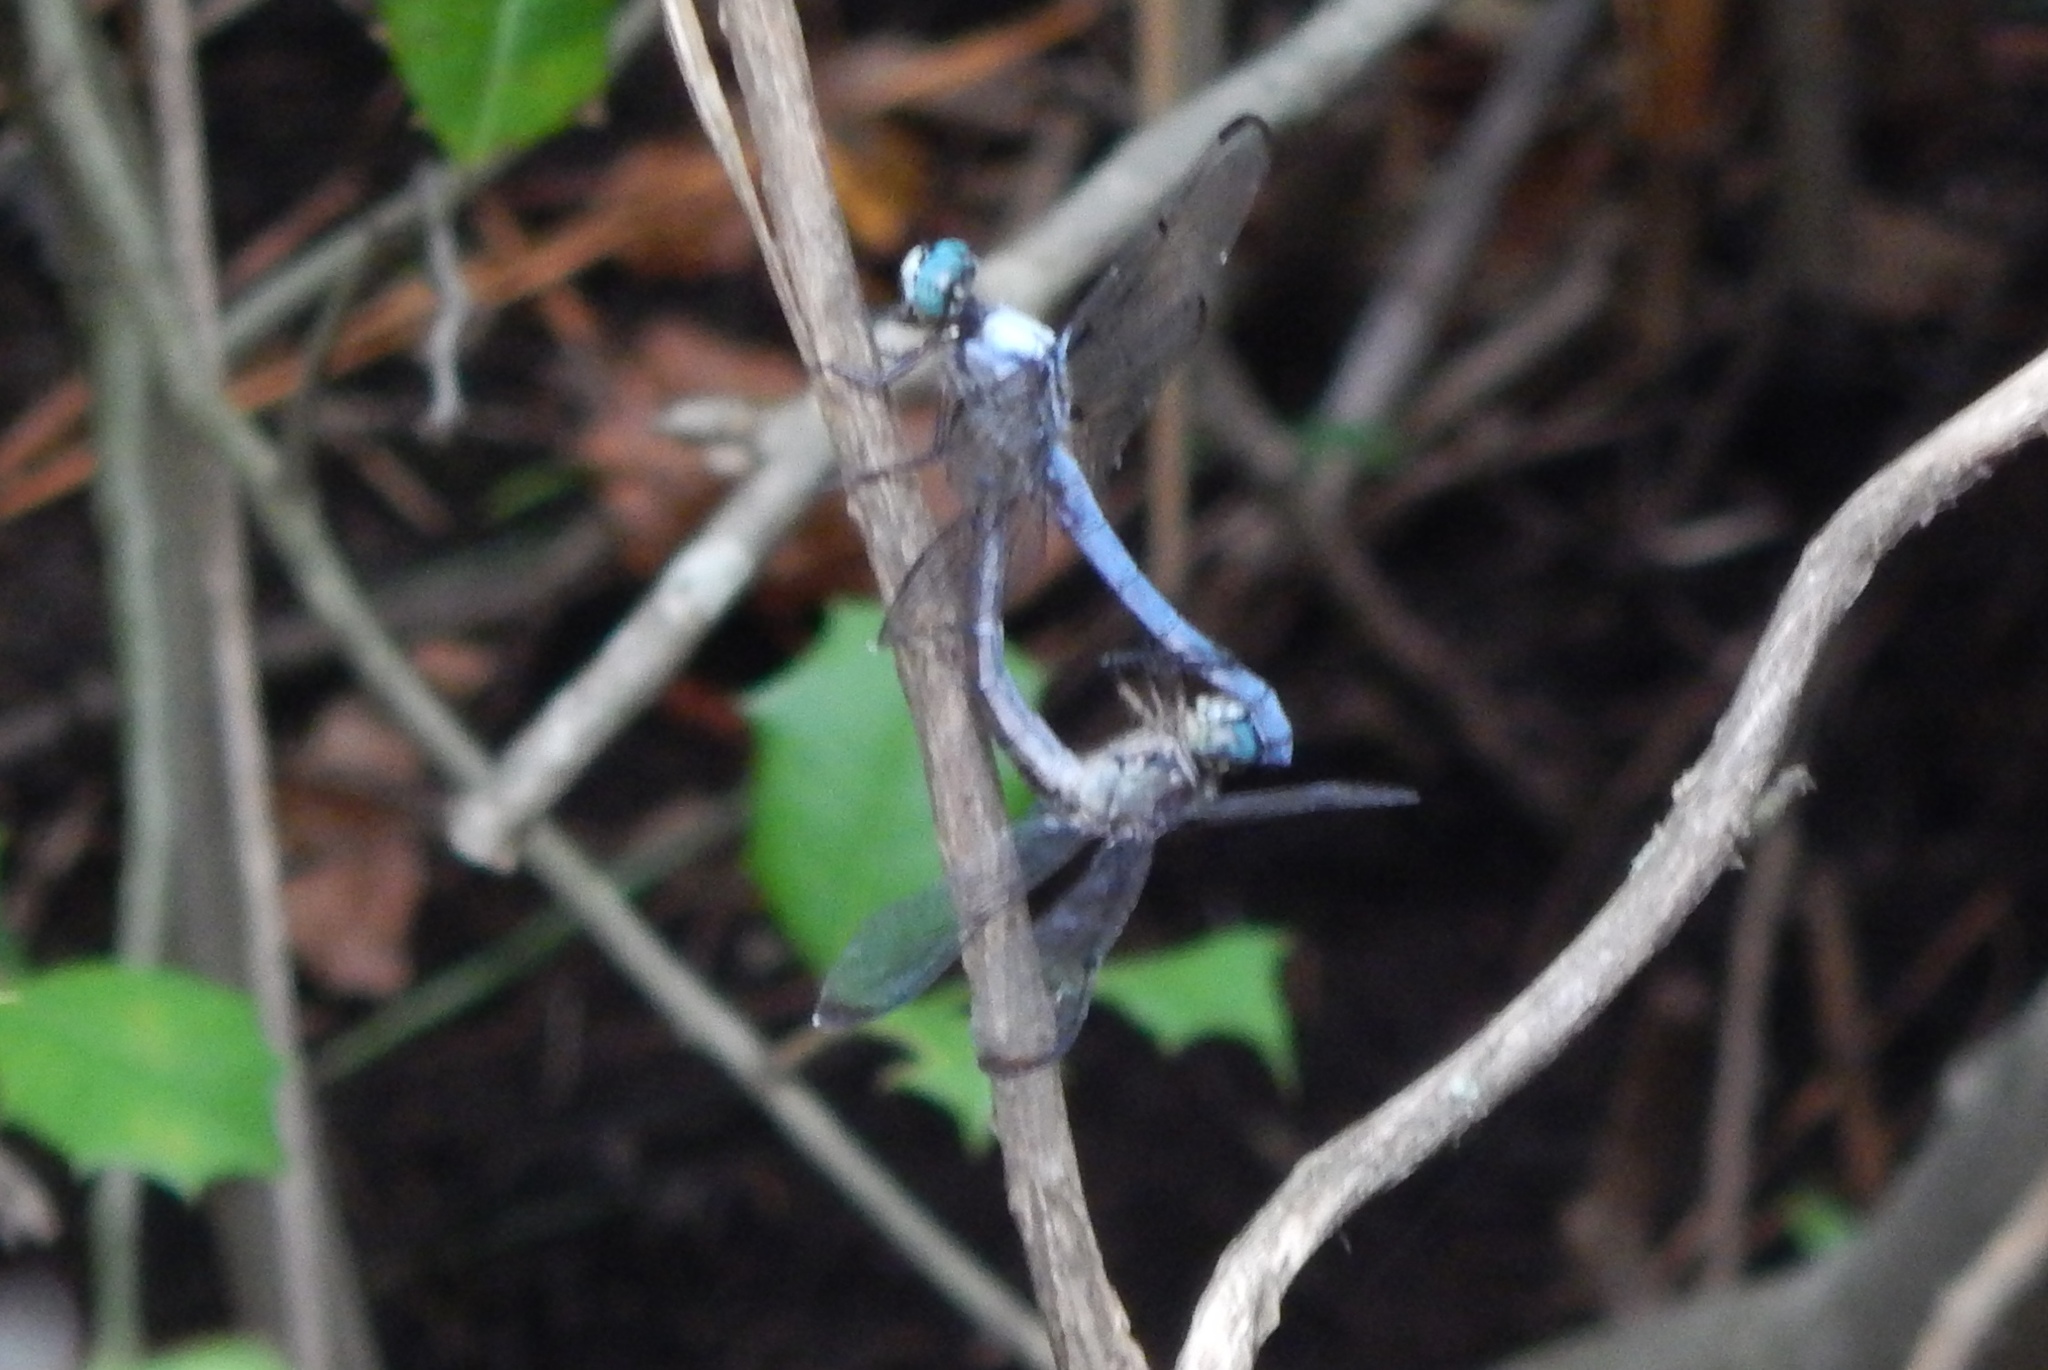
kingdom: Animalia
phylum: Arthropoda
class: Insecta
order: Odonata
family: Libellulidae
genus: Libellula
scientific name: Libellula vibrans
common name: Great blue skimmer
